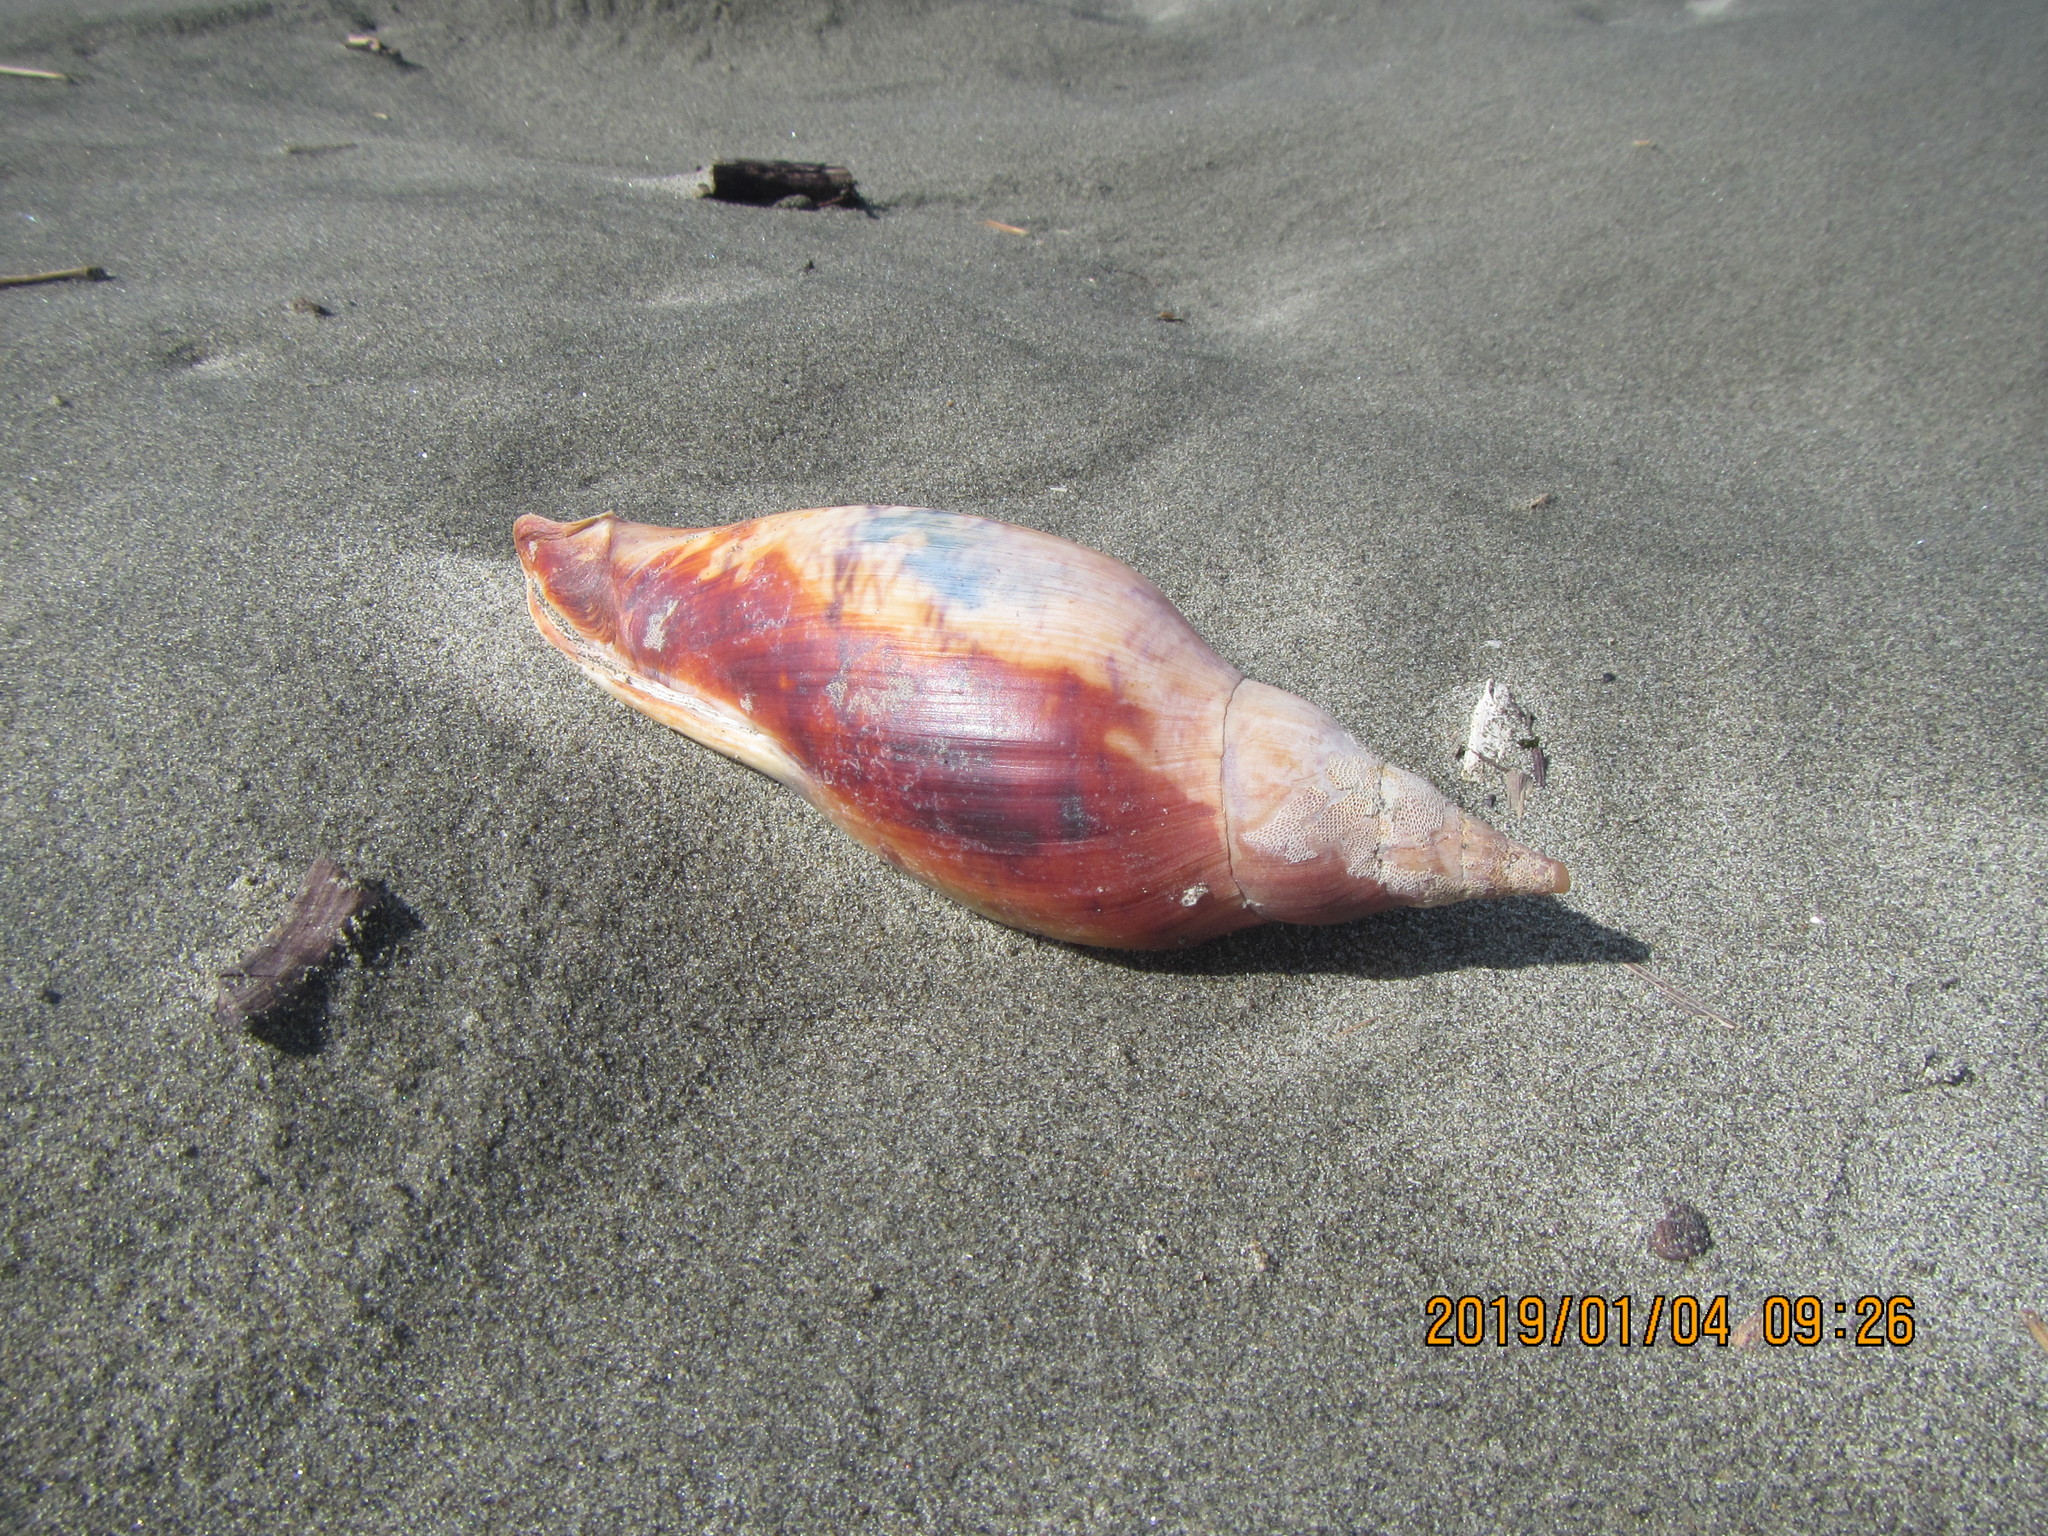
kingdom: Animalia
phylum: Mollusca
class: Gastropoda
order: Neogastropoda
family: Volutidae
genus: Alcithoe
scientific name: Alcithoe arabica
